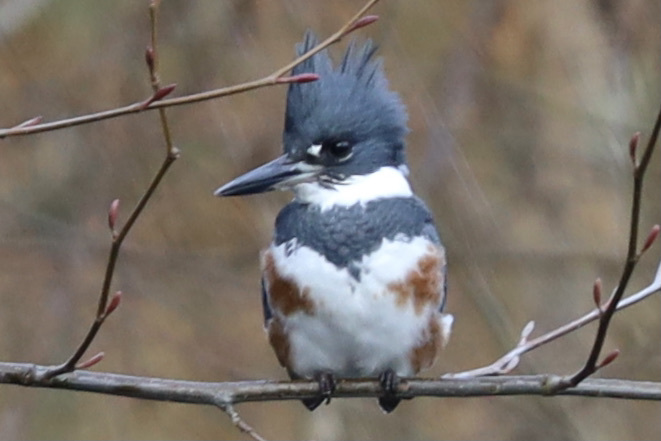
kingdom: Animalia
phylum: Chordata
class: Aves
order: Coraciiformes
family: Alcedinidae
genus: Megaceryle
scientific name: Megaceryle alcyon
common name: Belted kingfisher
